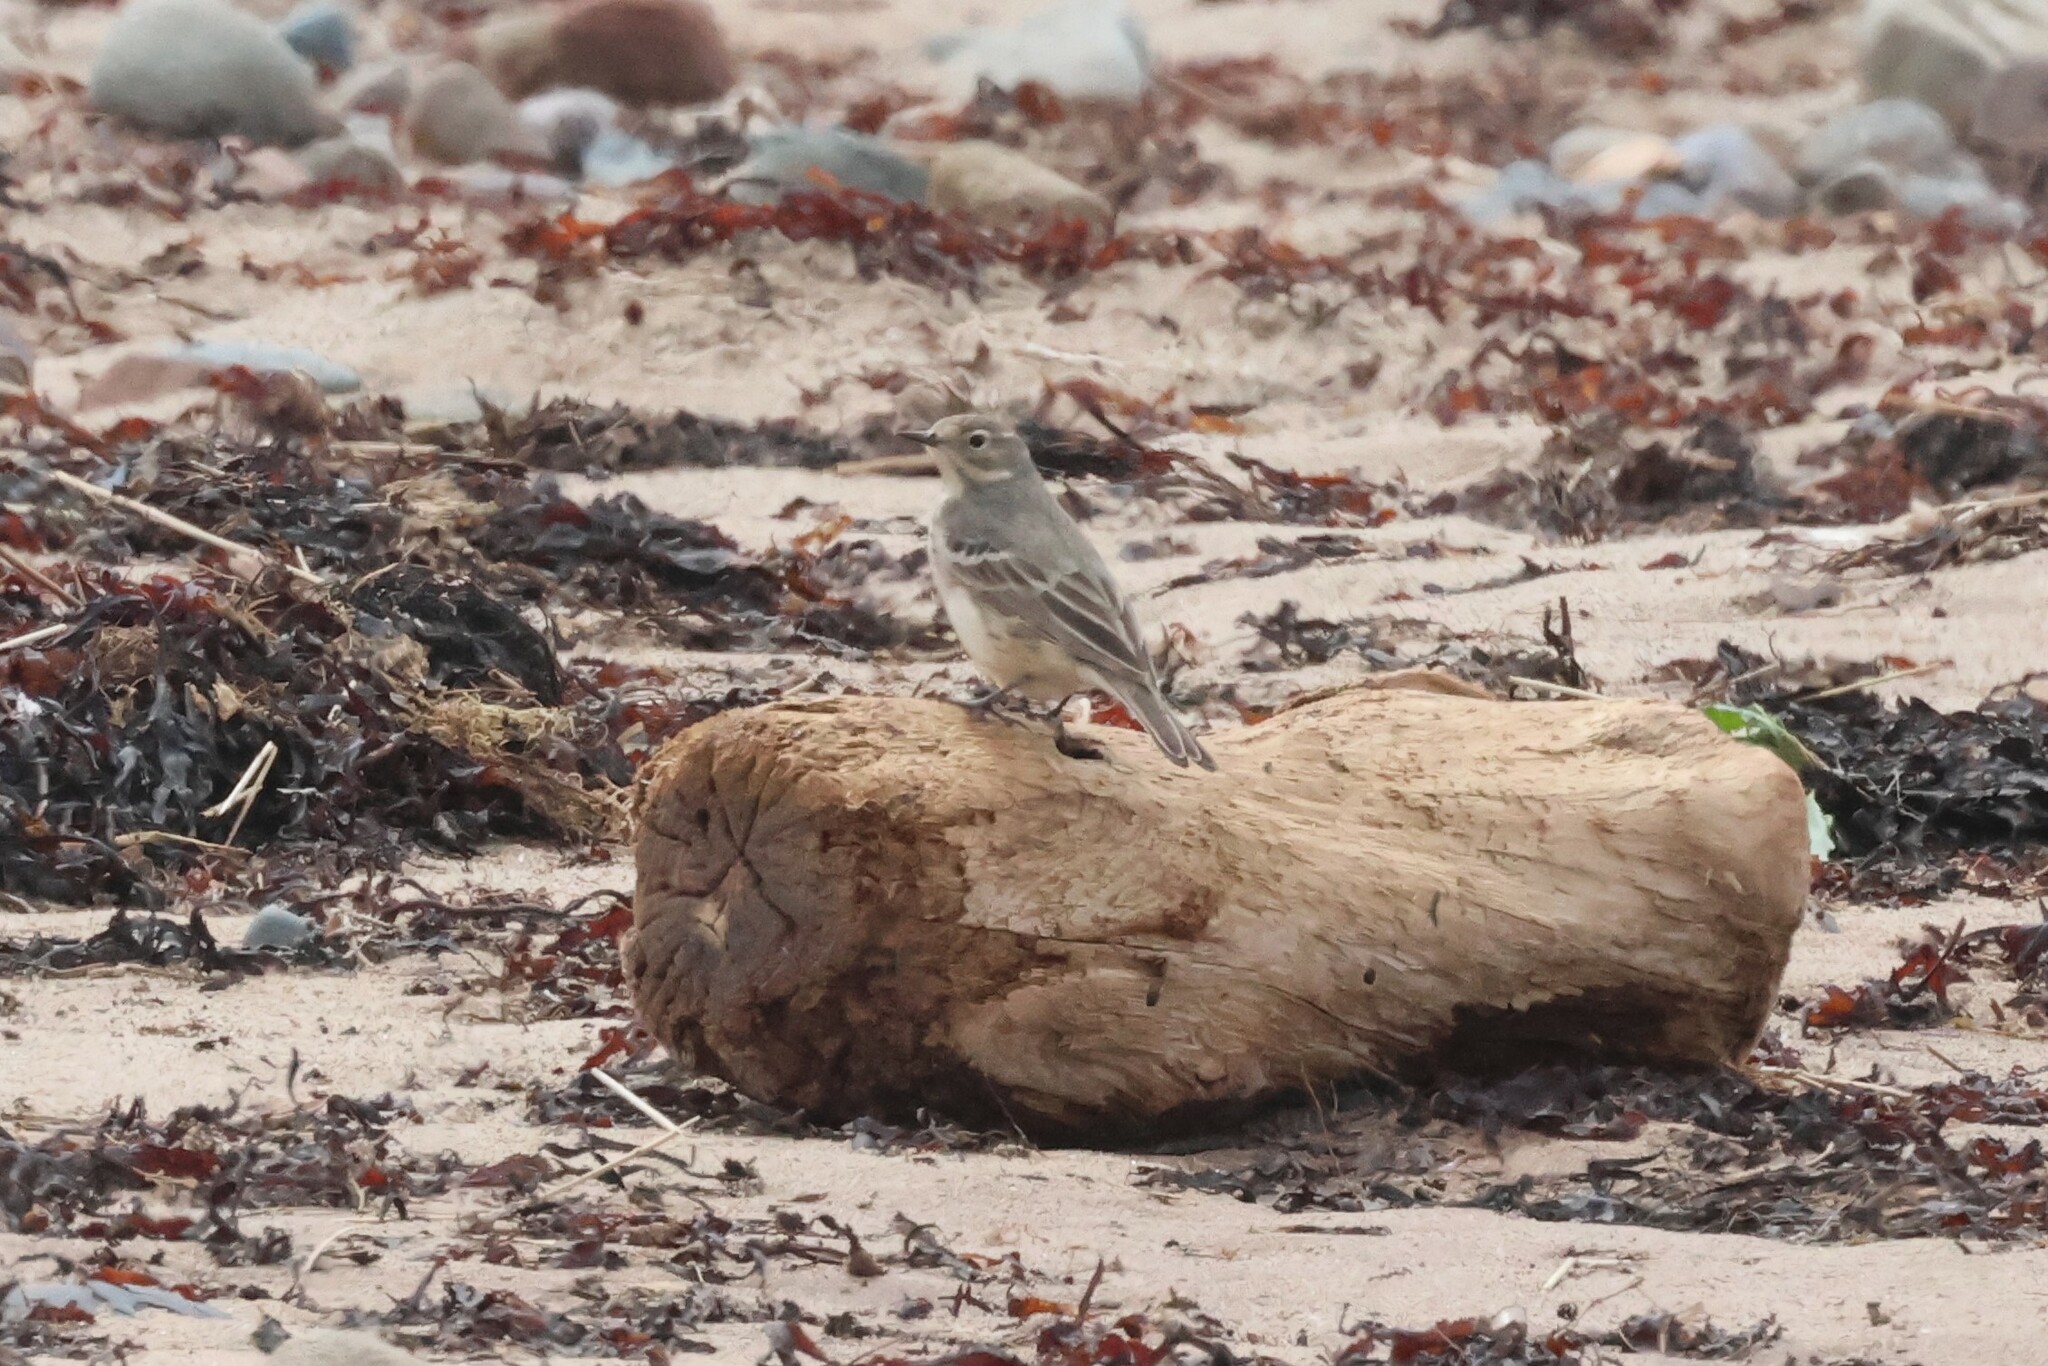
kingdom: Animalia
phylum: Chordata
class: Aves
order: Passeriformes
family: Motacillidae
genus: Anthus
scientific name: Anthus rubescens
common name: Buff-bellied pipit
